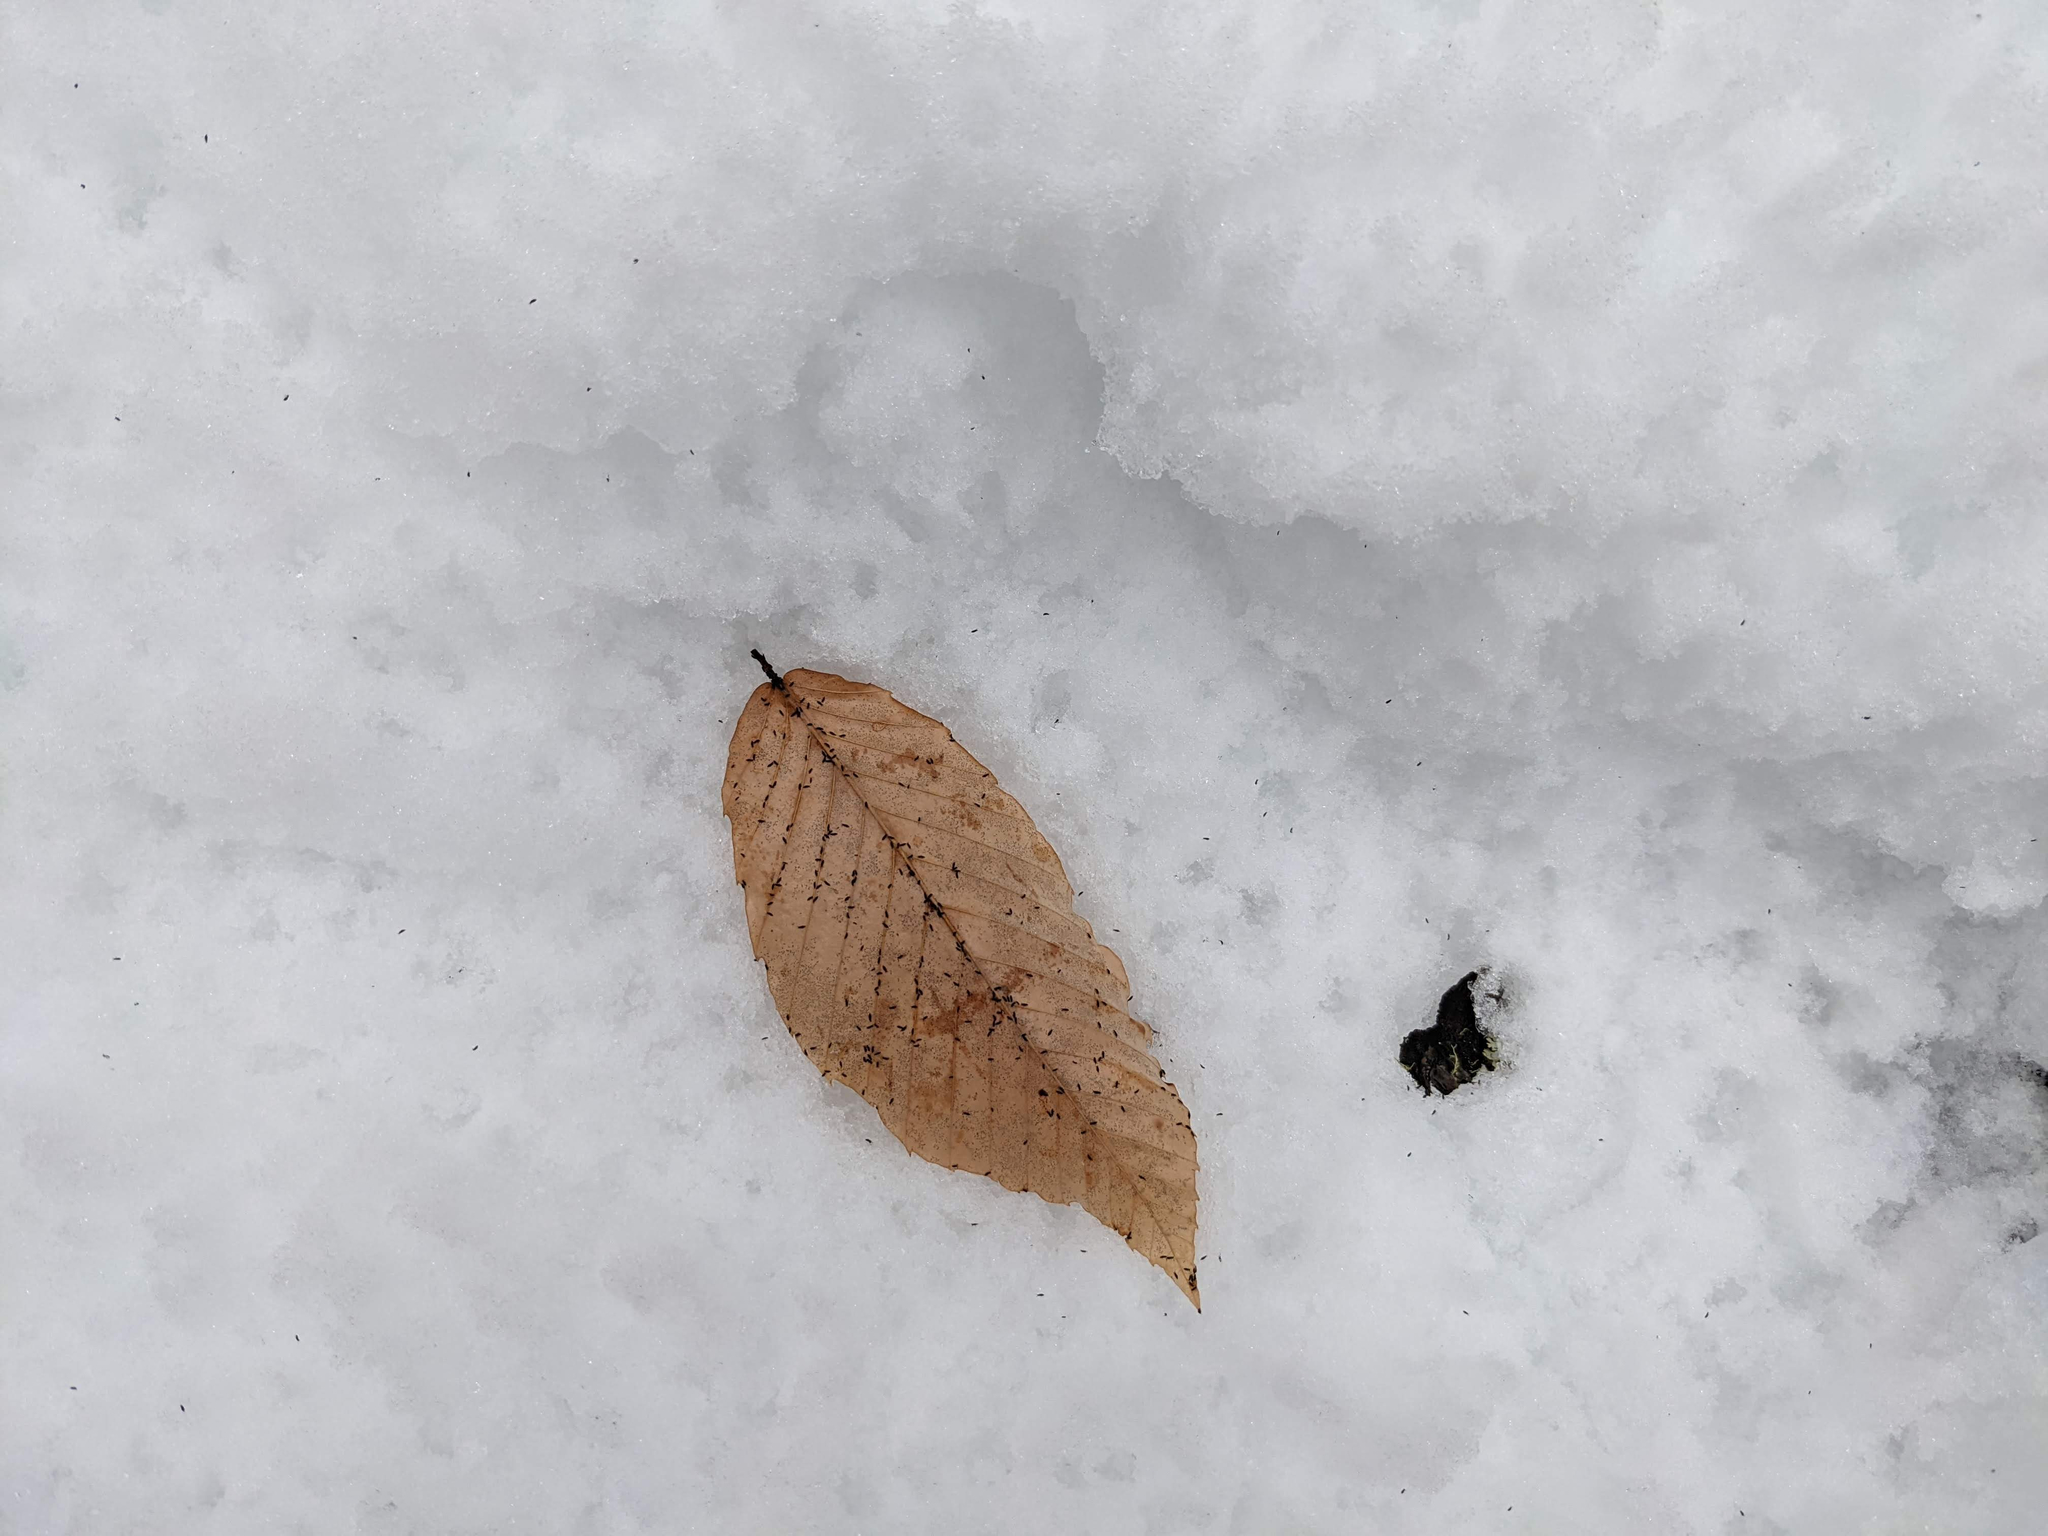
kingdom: Plantae
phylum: Tracheophyta
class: Magnoliopsida
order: Fagales
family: Fagaceae
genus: Fagus
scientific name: Fagus grandifolia
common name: American beech
